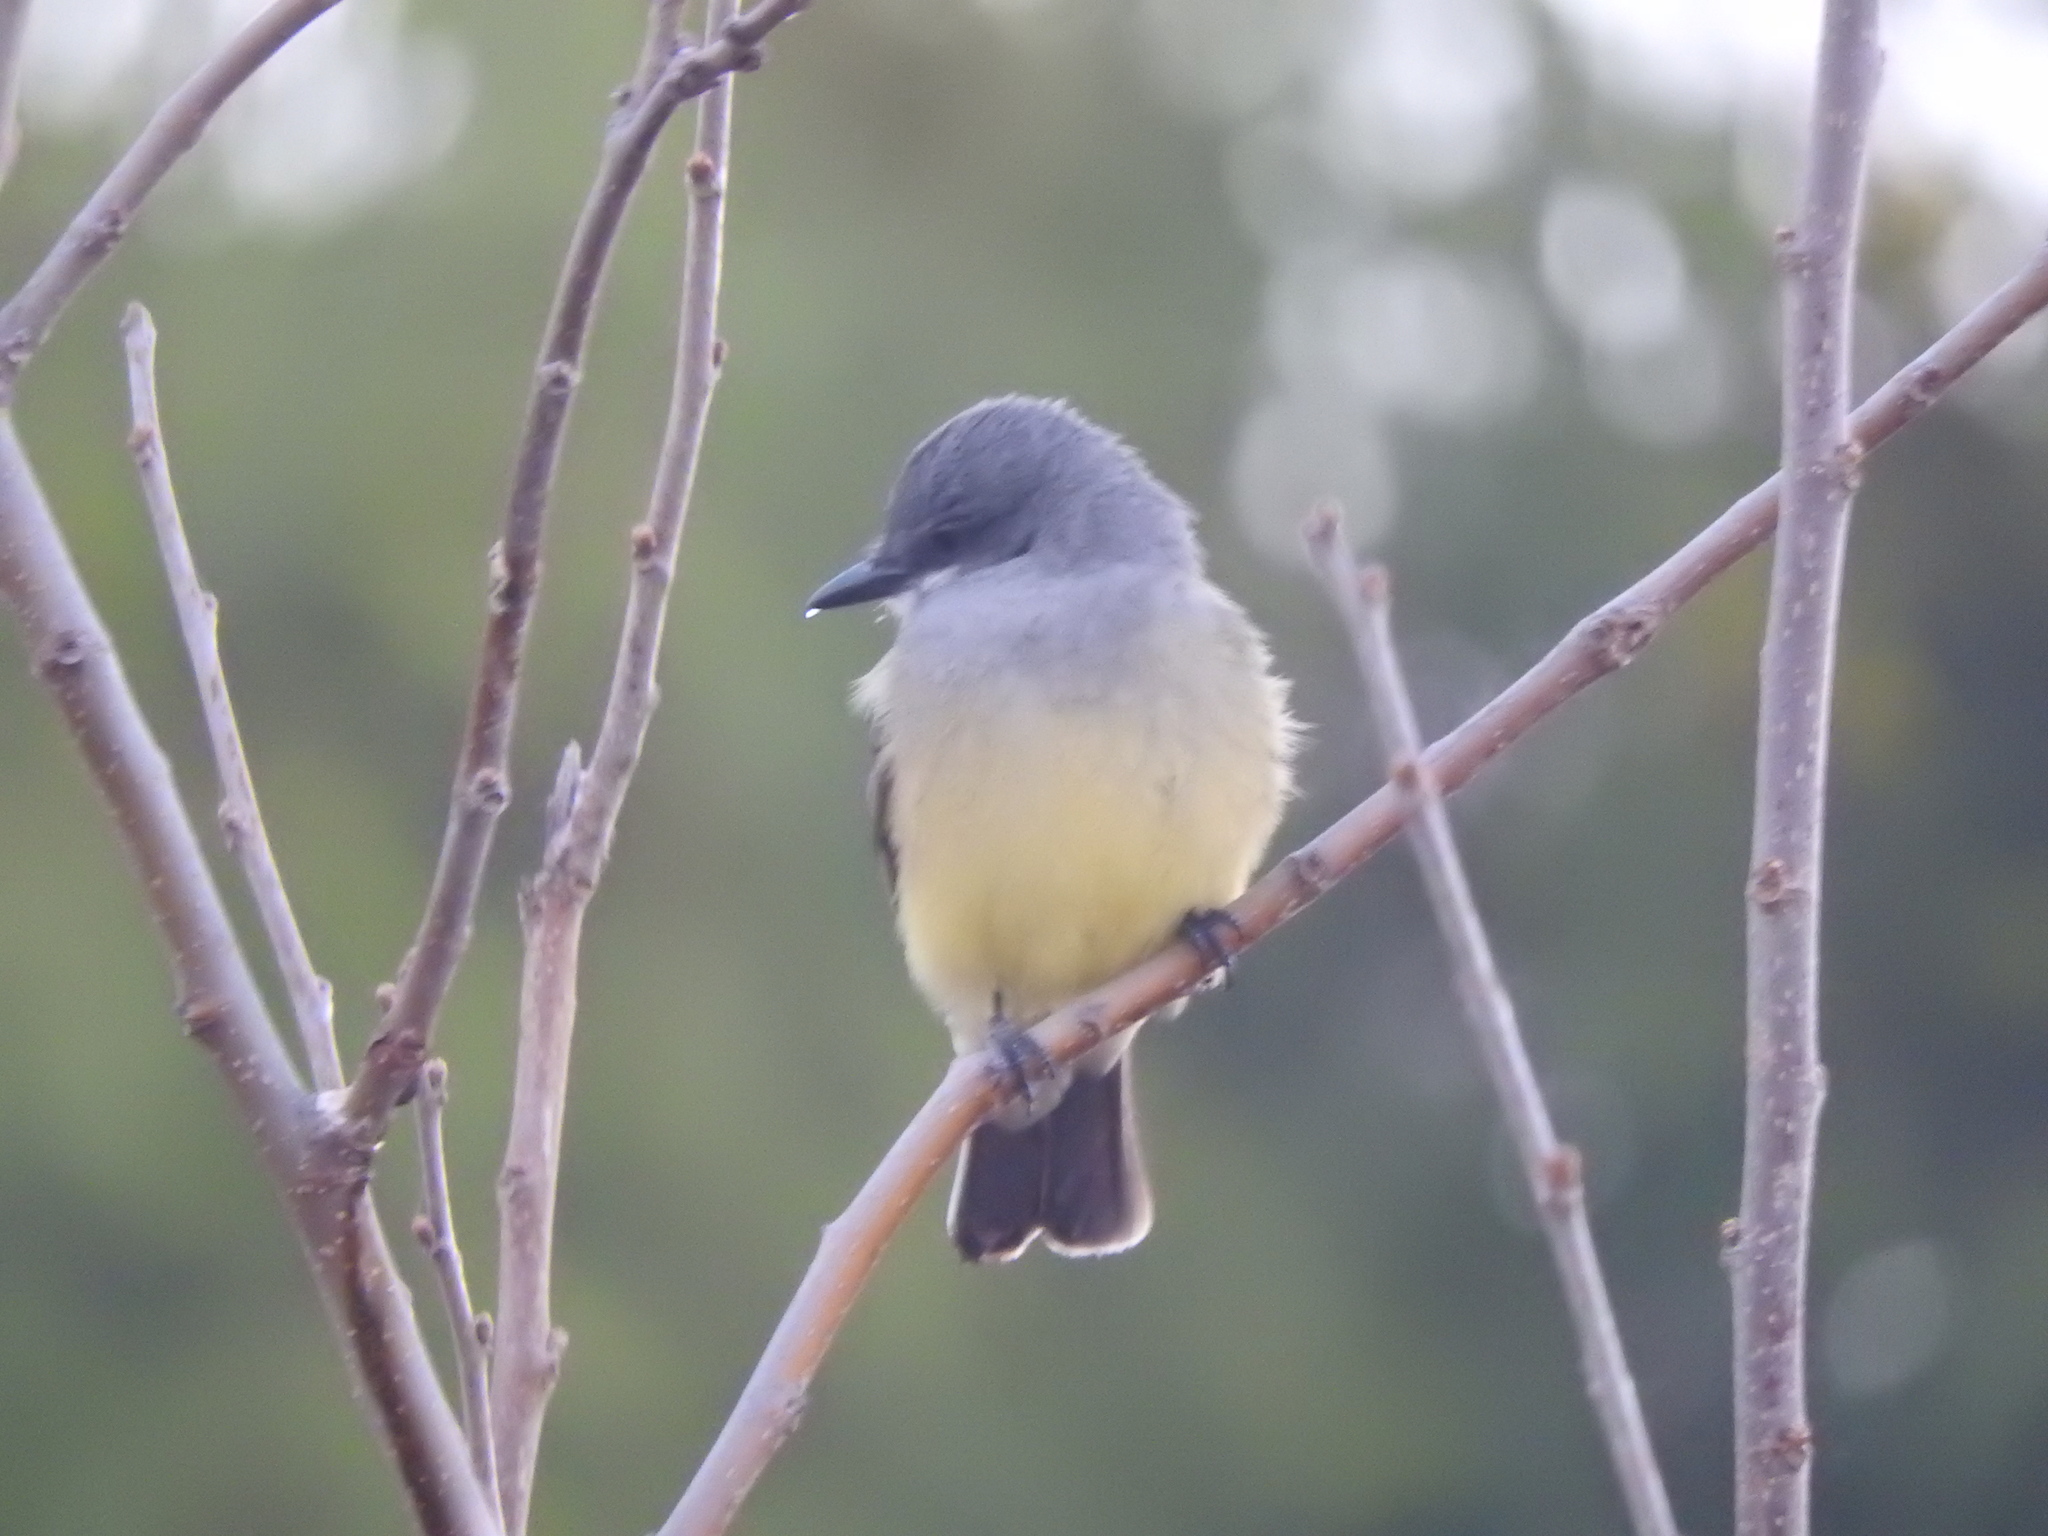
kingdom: Animalia
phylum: Chordata
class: Aves
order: Passeriformes
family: Tyrannidae
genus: Tyrannus
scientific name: Tyrannus vociferans
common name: Cassin's kingbird
